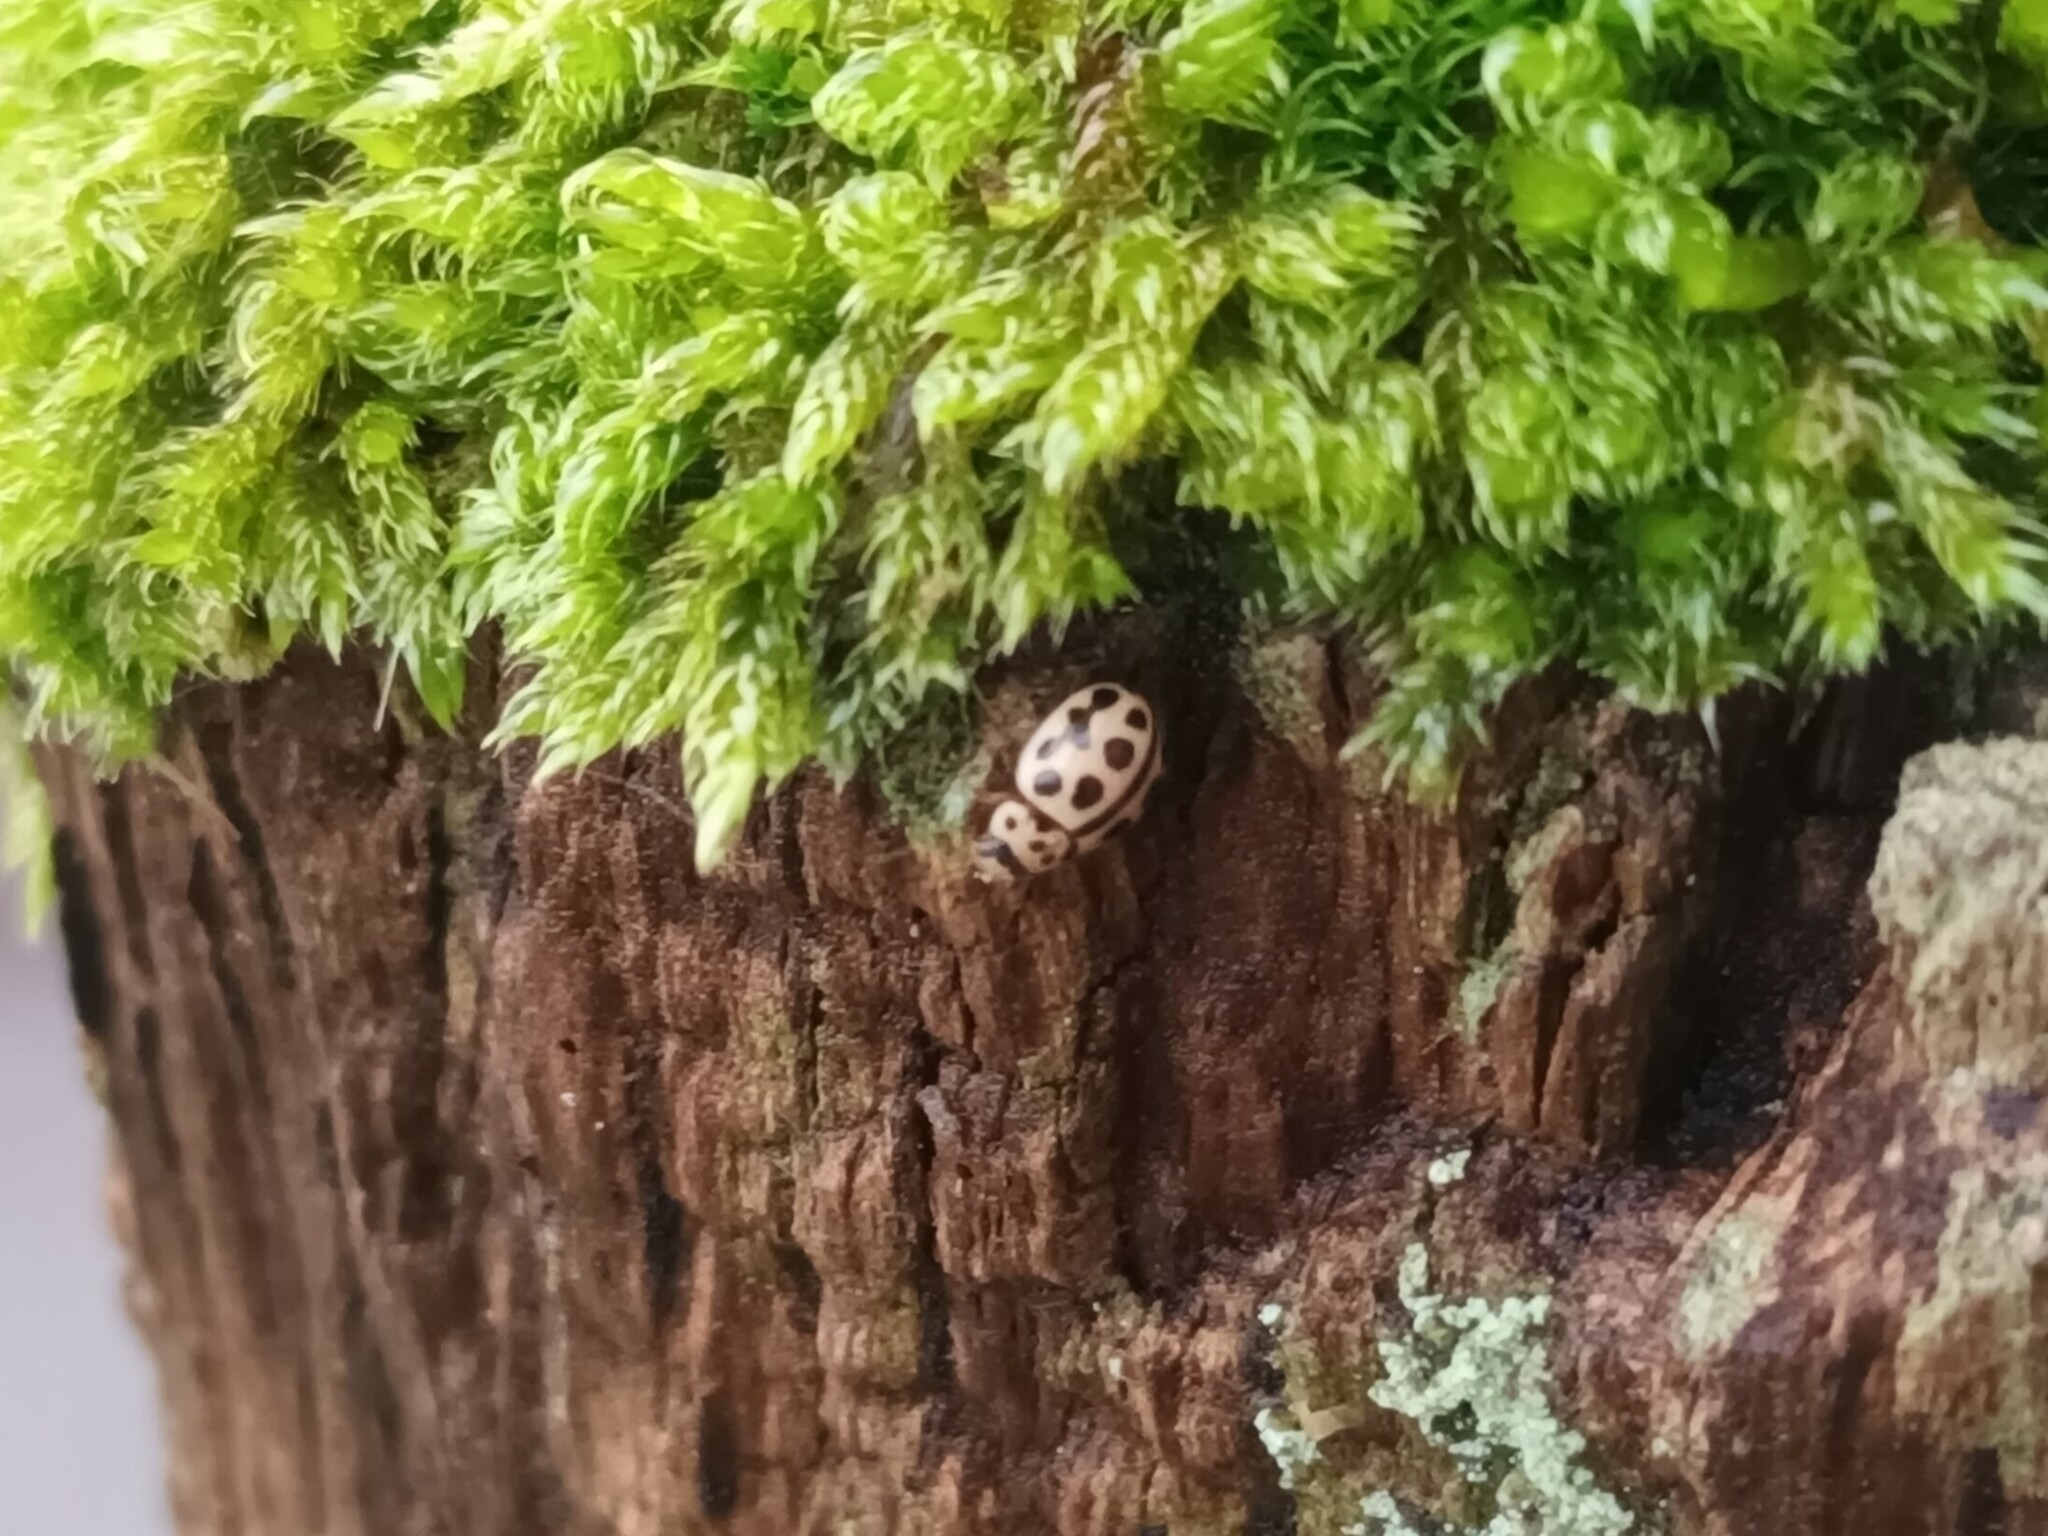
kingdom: Animalia
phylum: Arthropoda
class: Insecta
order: Coleoptera
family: Coccinellidae
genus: Tytthaspis
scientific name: Tytthaspis sedecimpunctata
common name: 16-spot ladybird
